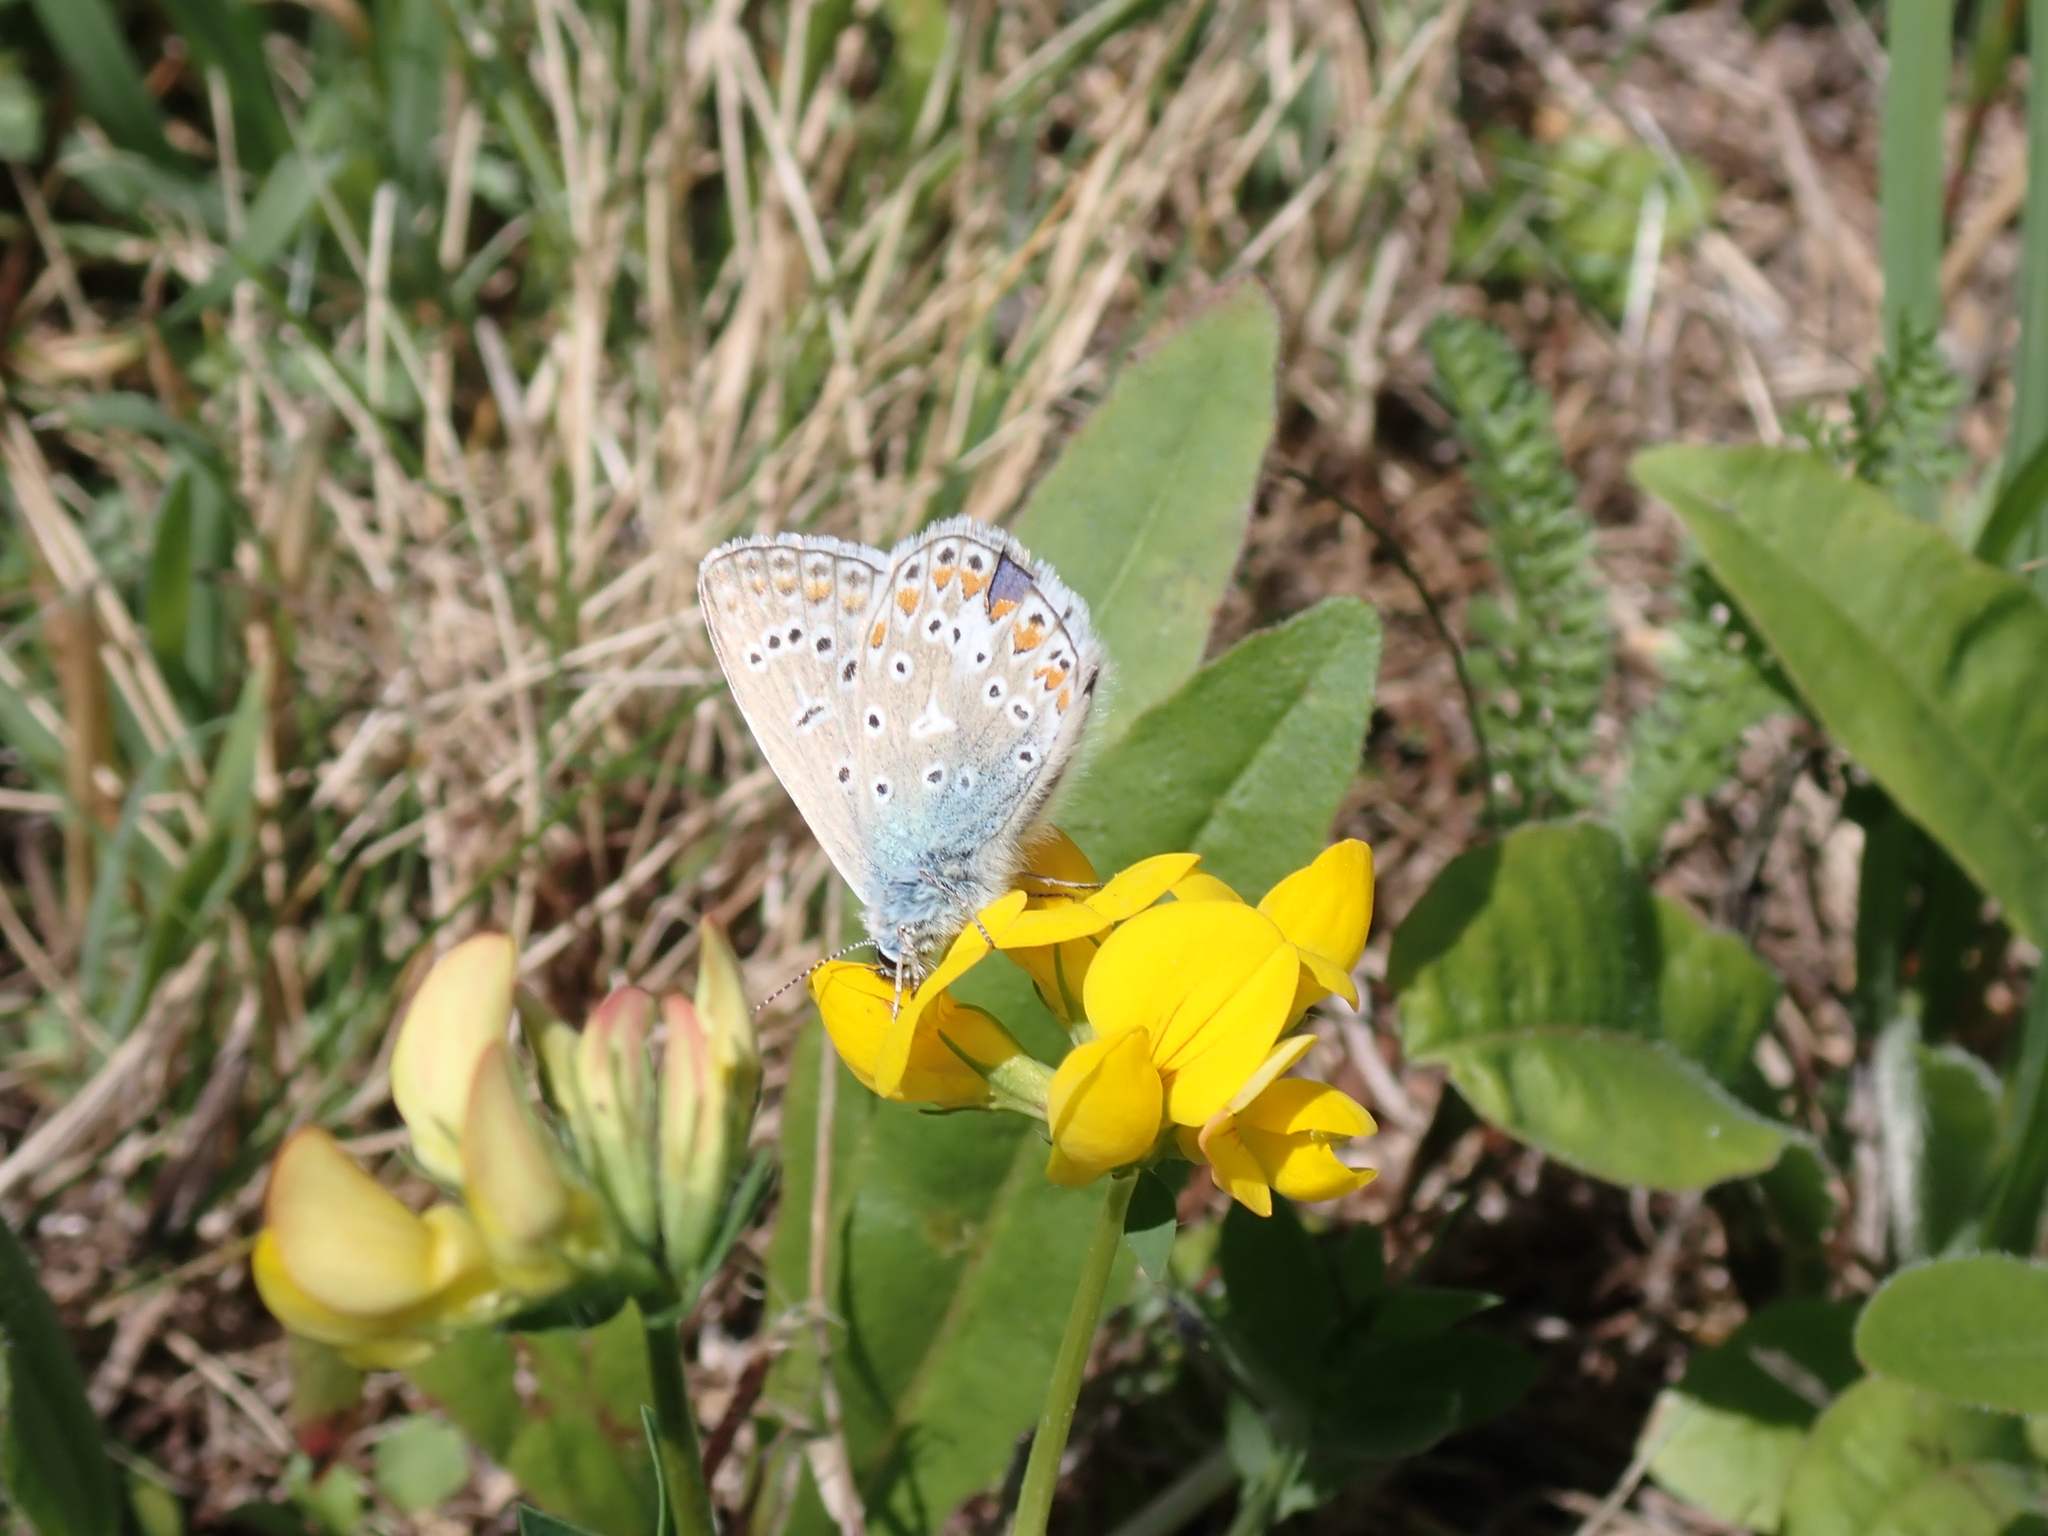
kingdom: Animalia
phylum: Arthropoda
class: Insecta
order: Lepidoptera
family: Lycaenidae
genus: Polyommatus
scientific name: Polyommatus icarus
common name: Common blue
